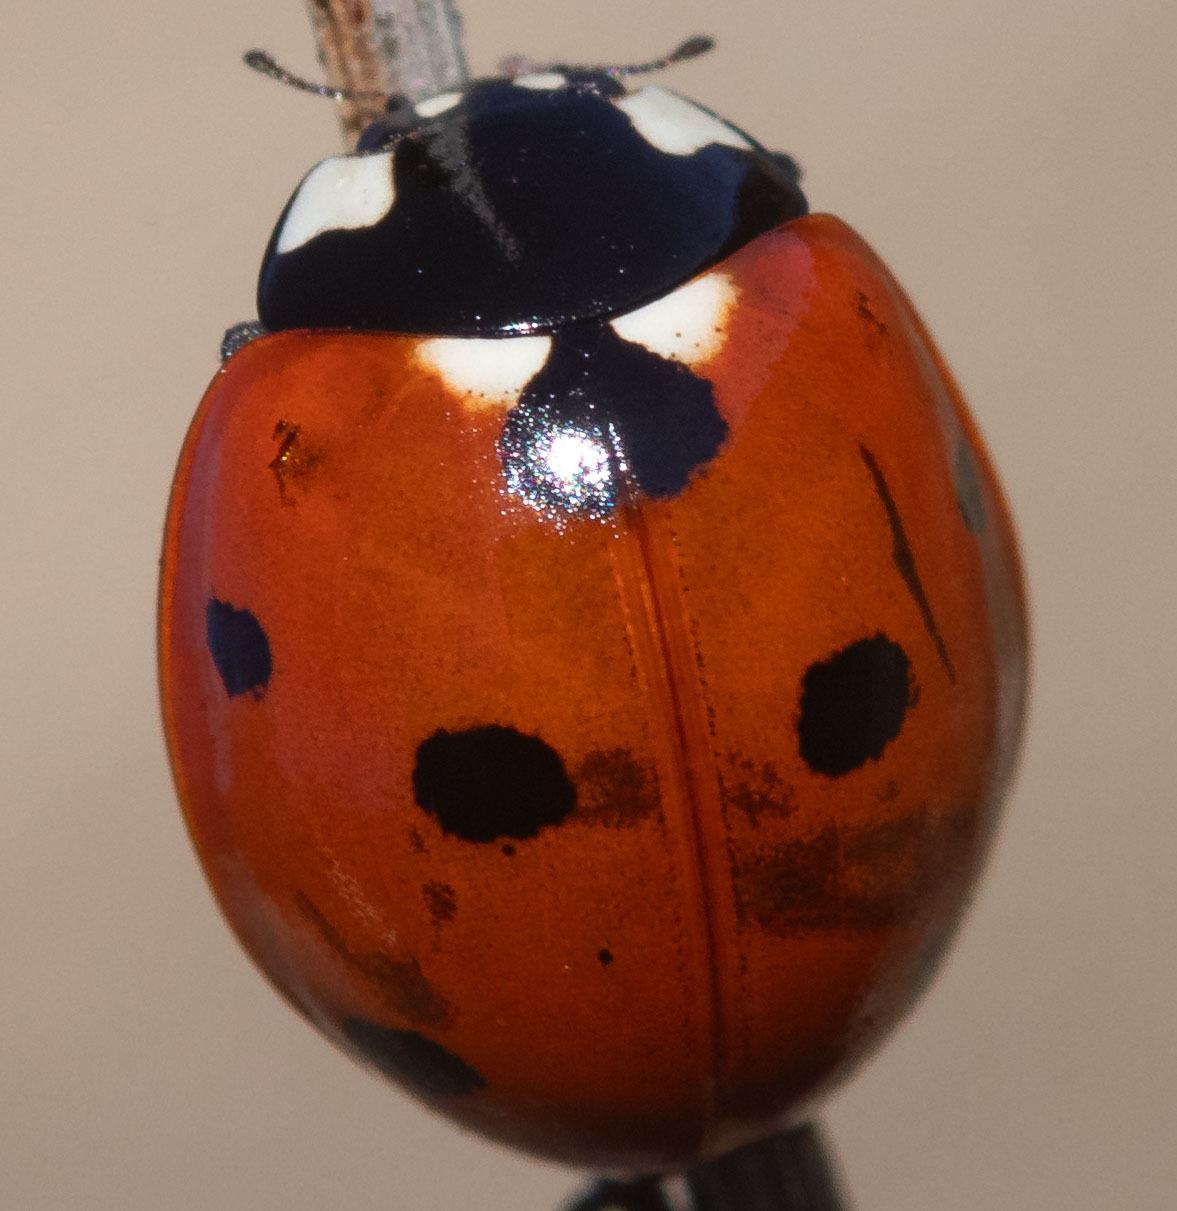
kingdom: Animalia
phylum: Arthropoda
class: Insecta
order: Coleoptera
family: Coccinellidae
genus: Coccinella
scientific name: Coccinella septempunctata
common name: Sevenspotted lady beetle
